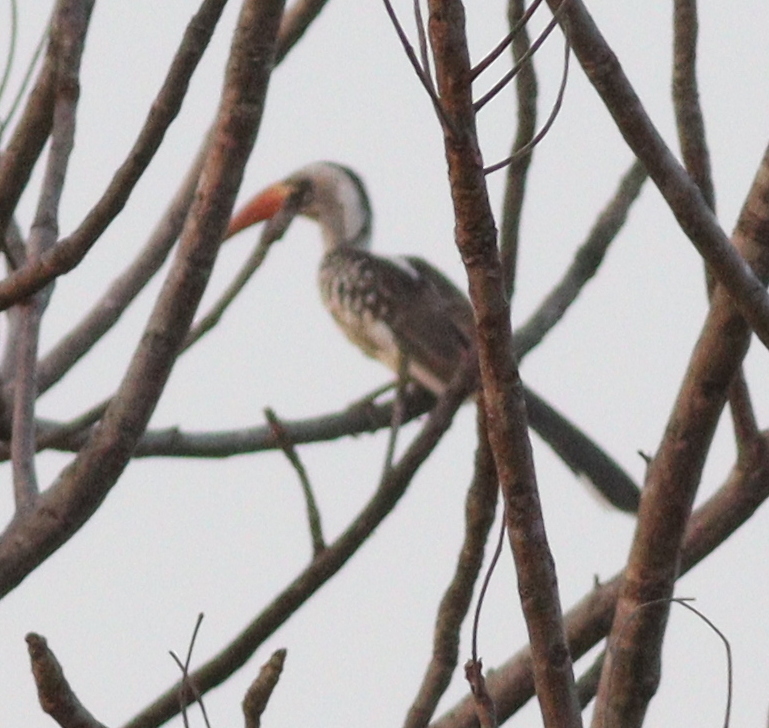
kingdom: Animalia
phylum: Chordata
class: Aves
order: Bucerotiformes
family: Bucerotidae
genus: Tockus
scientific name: Tockus erythrorhynchus
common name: Northern red-billed hornbill
